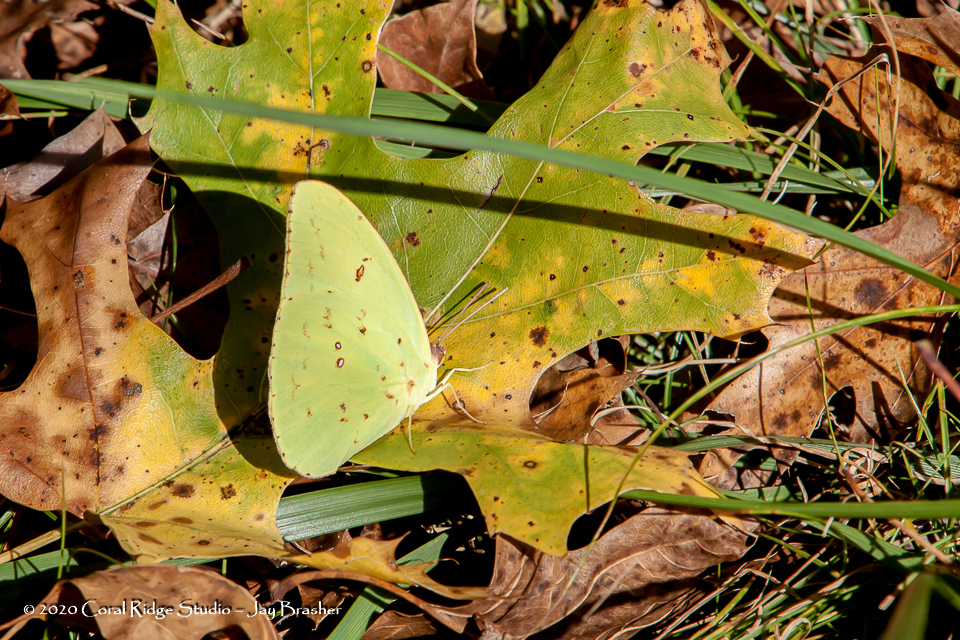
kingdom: Animalia
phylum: Arthropoda
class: Insecta
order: Lepidoptera
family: Pieridae
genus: Phoebis
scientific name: Phoebis sennae
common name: Cloudless sulphur
